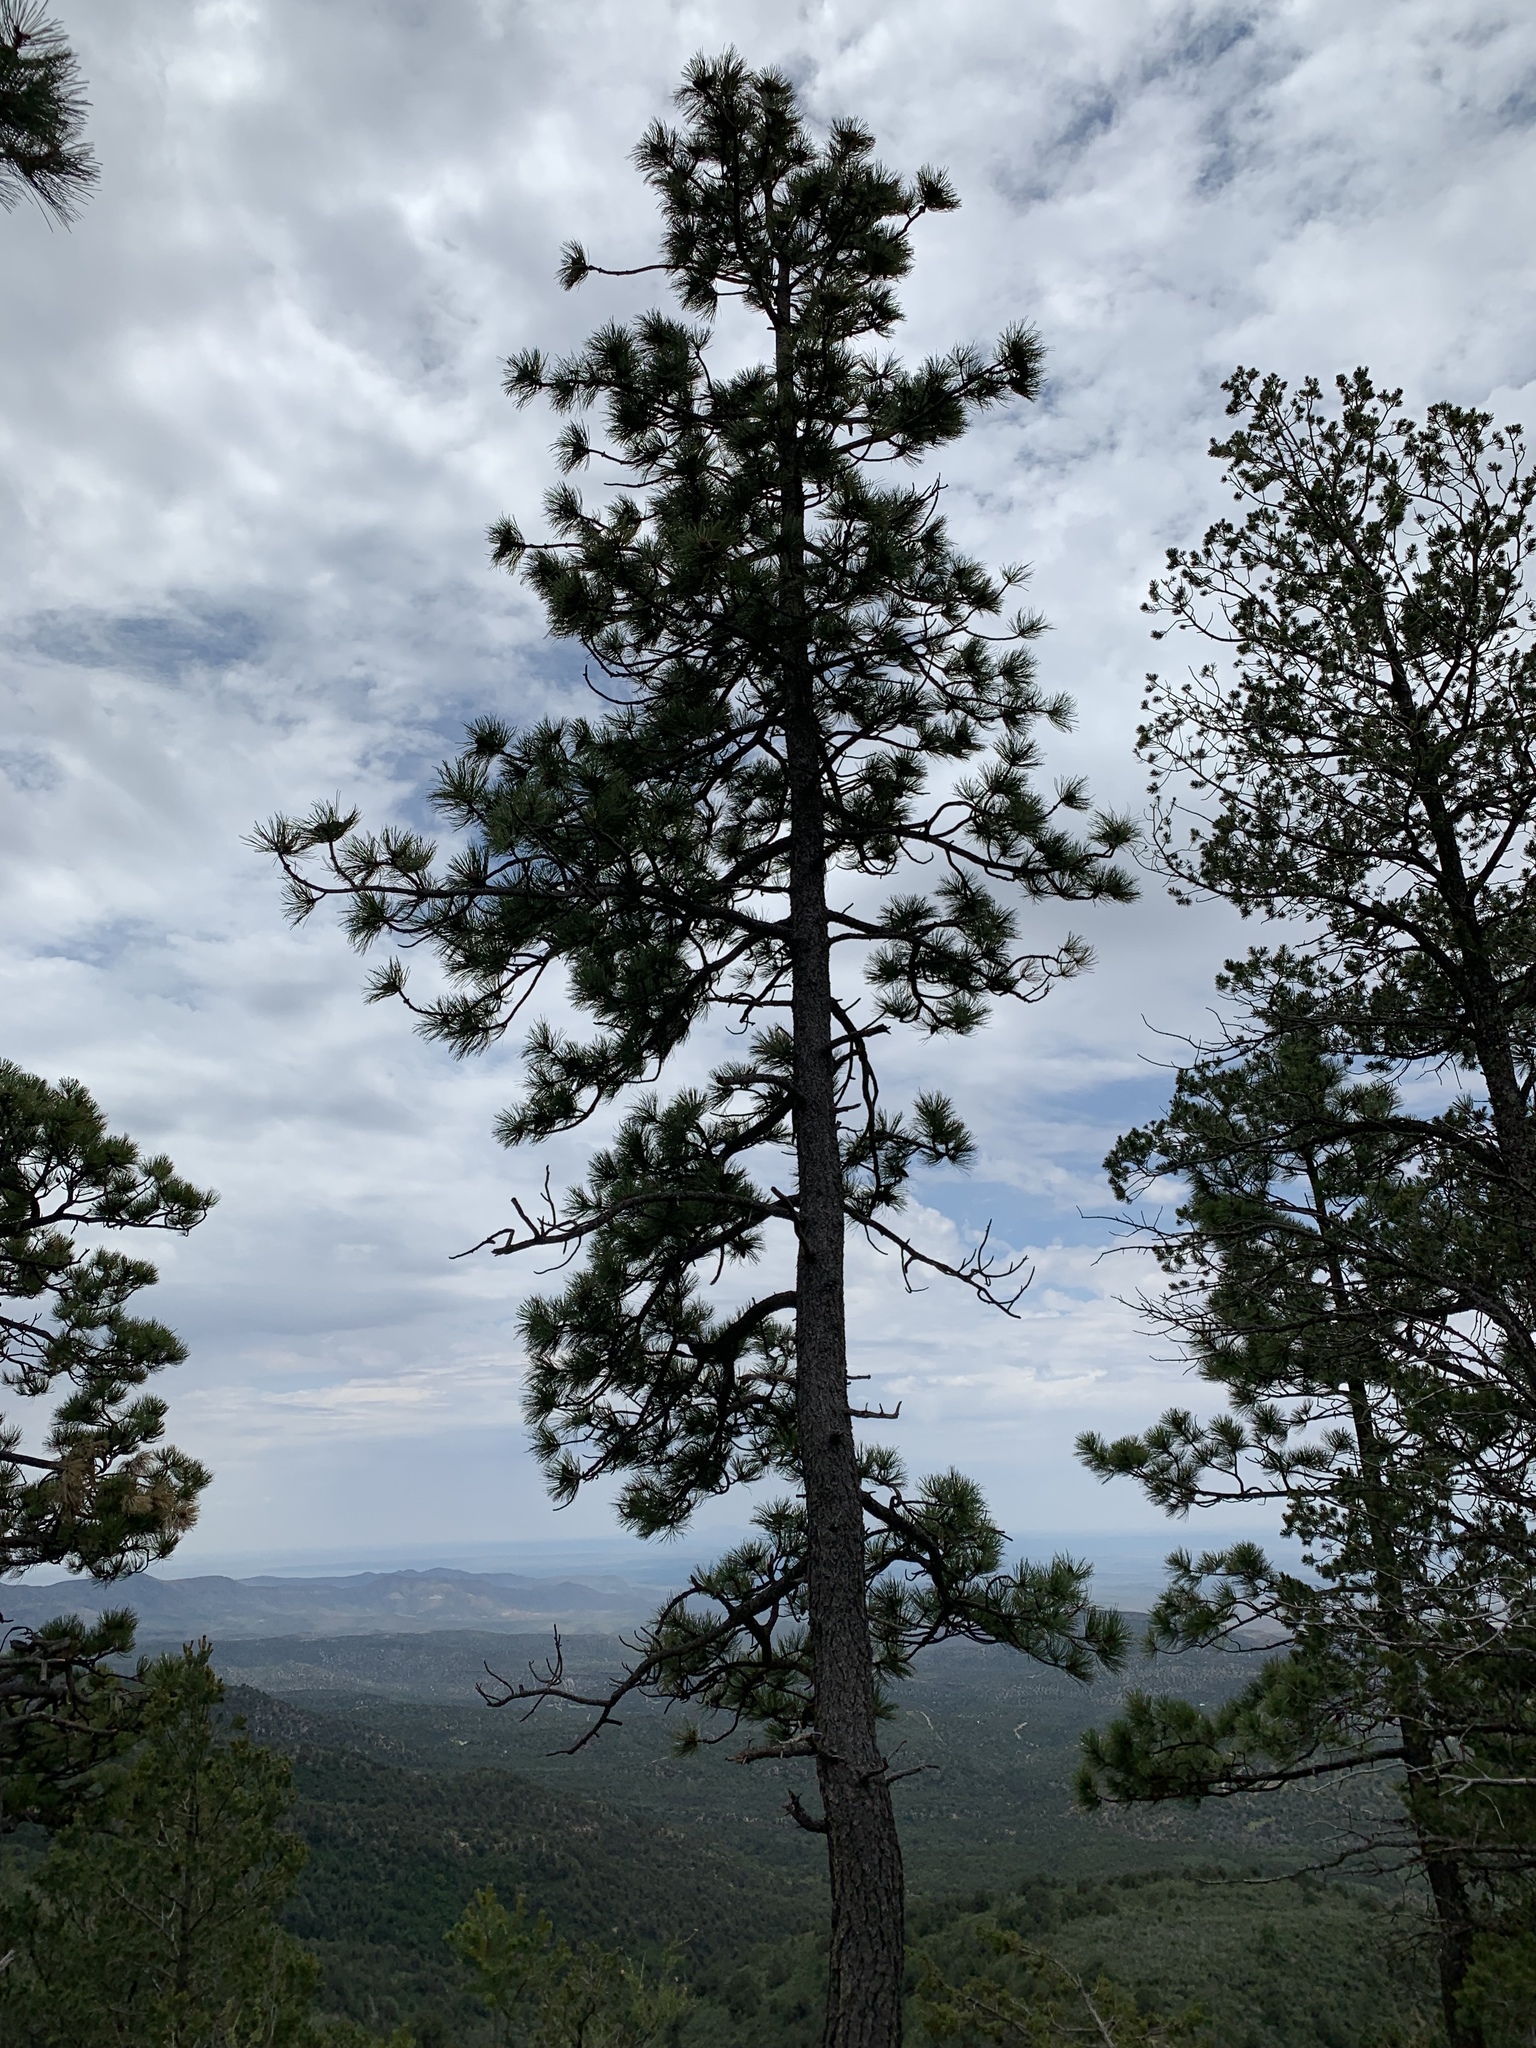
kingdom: Plantae
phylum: Tracheophyta
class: Pinopsida
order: Pinales
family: Pinaceae
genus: Pinus
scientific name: Pinus ponderosa
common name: Western yellow-pine
